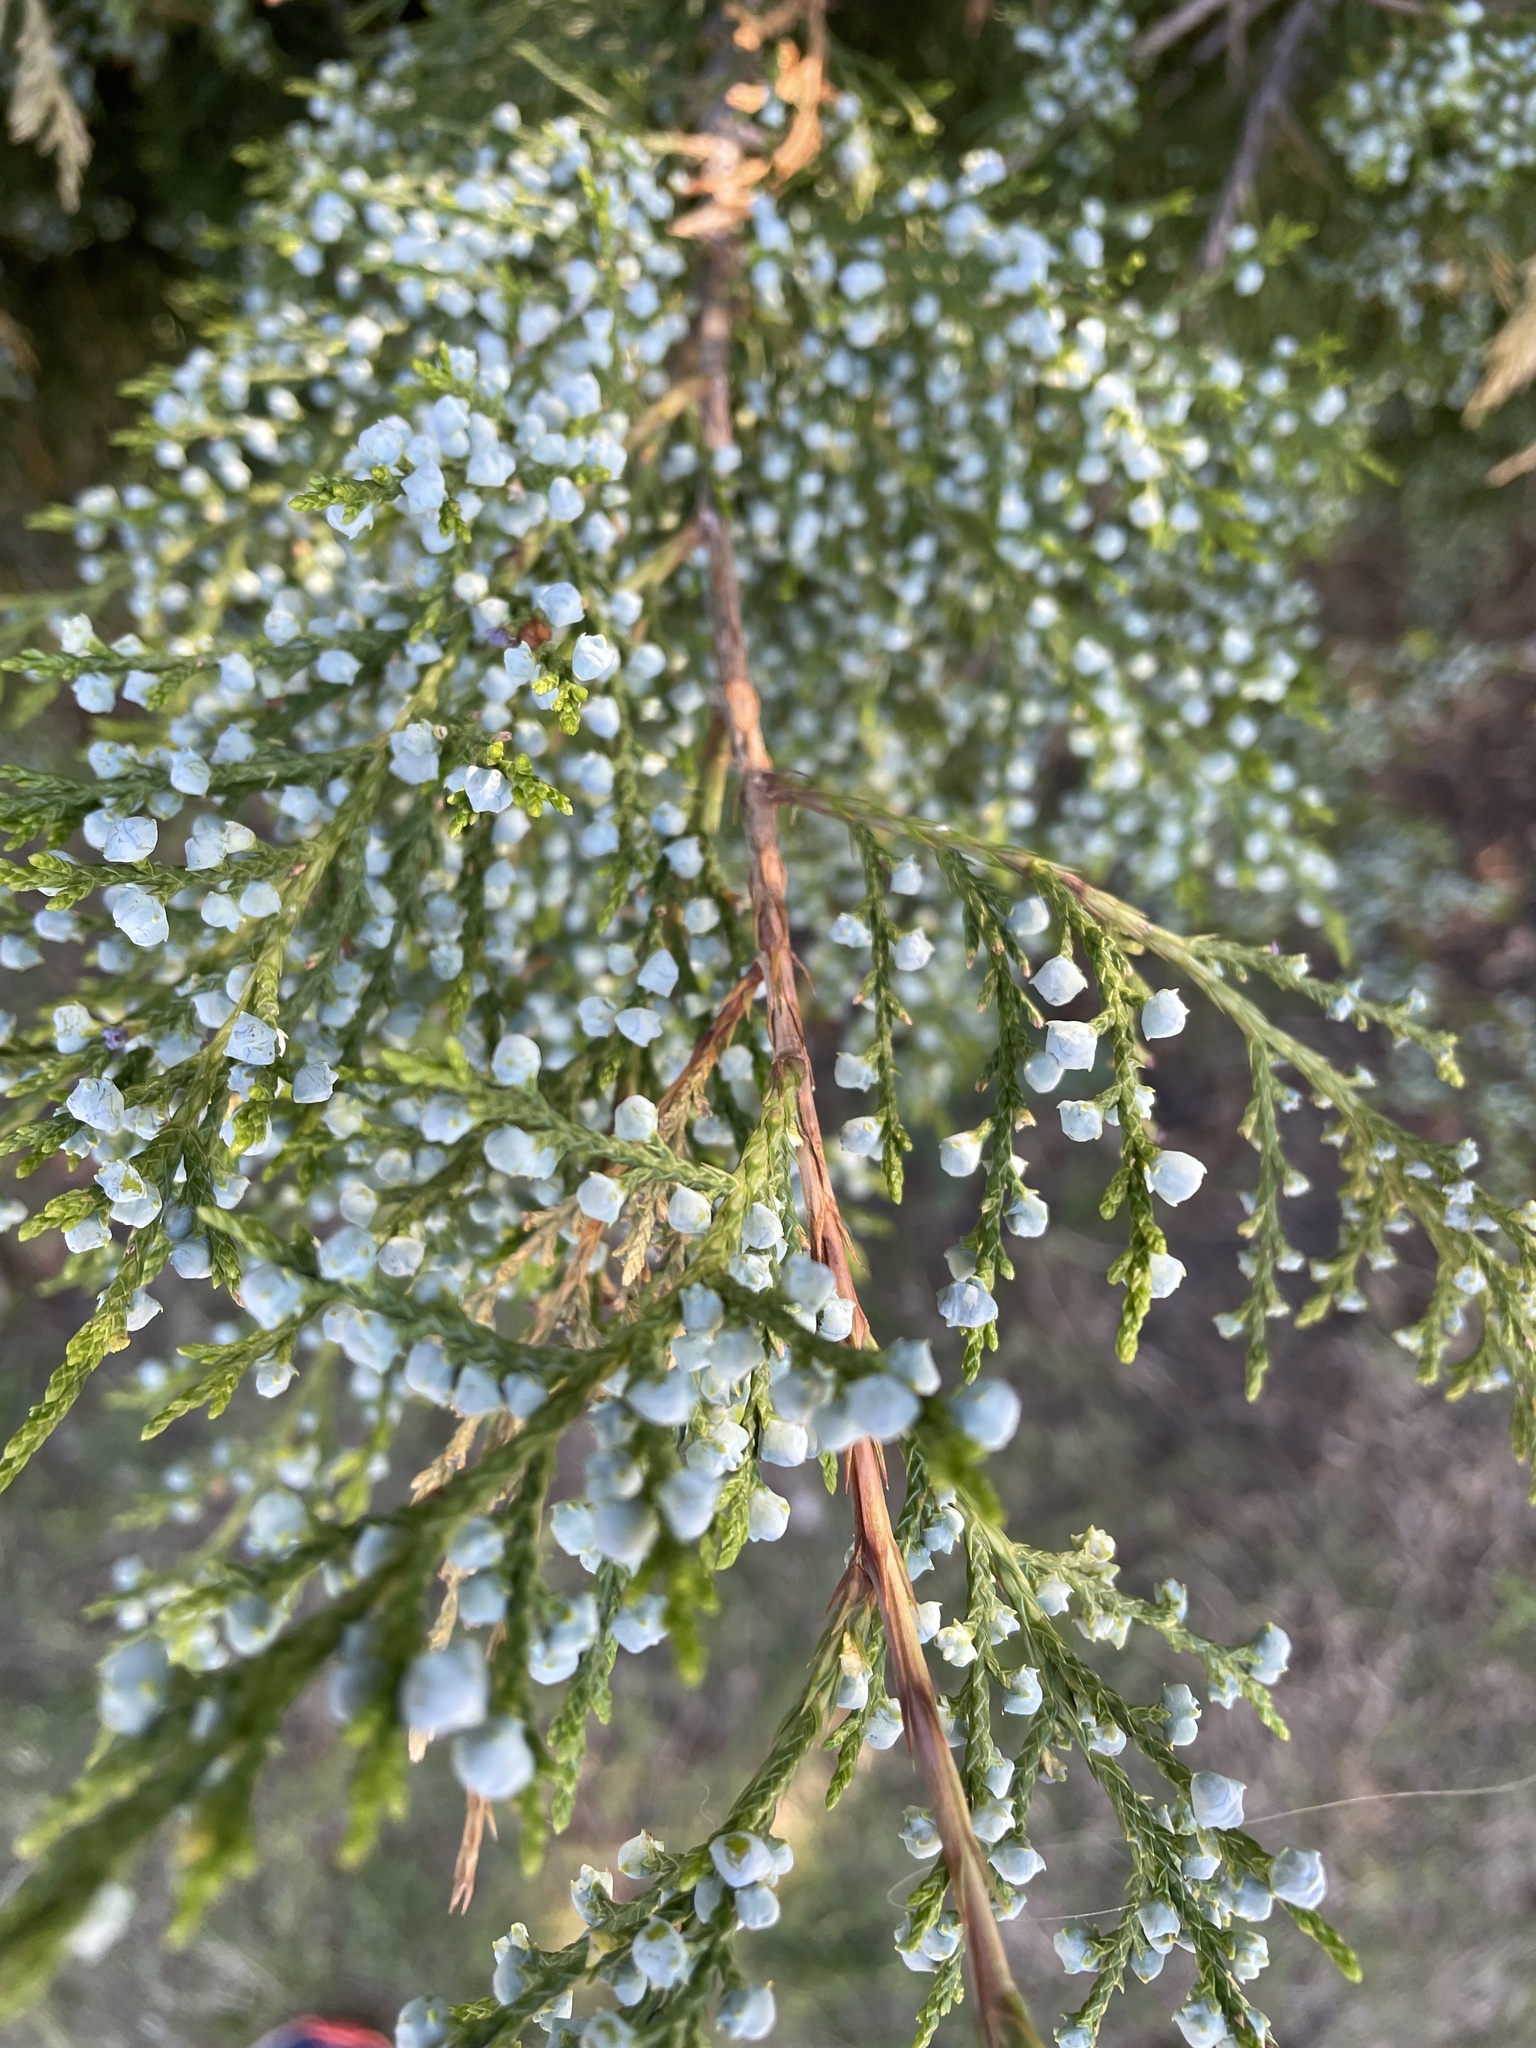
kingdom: Plantae
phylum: Tracheophyta
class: Pinopsida
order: Pinales
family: Cupressaceae
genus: Juniperus
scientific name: Juniperus ashei
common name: Mexican juniper
